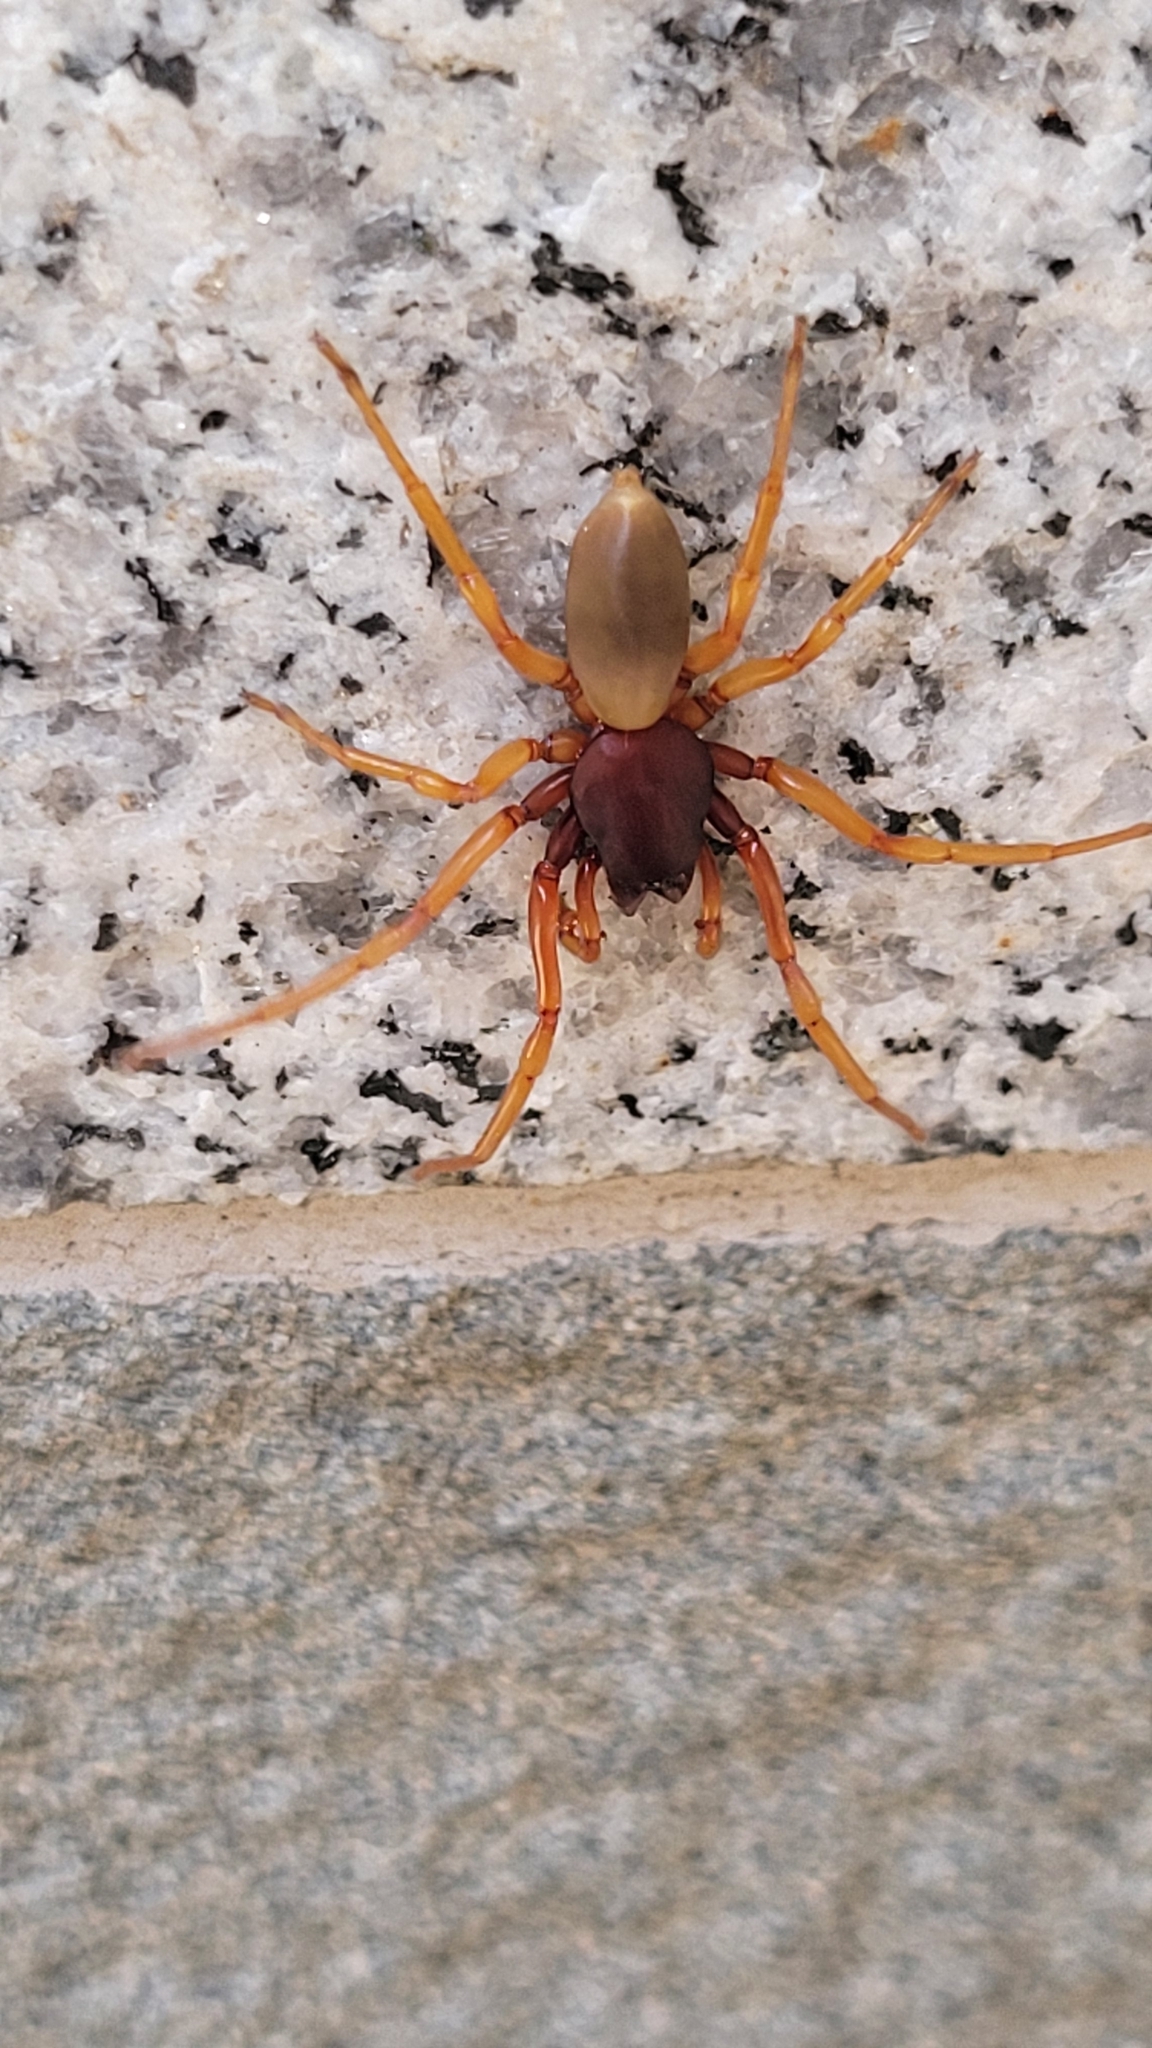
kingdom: Animalia
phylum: Arthropoda
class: Arachnida
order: Araneae
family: Dysderidae
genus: Dysdera
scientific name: Dysdera crocata
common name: Woodlouse spider
